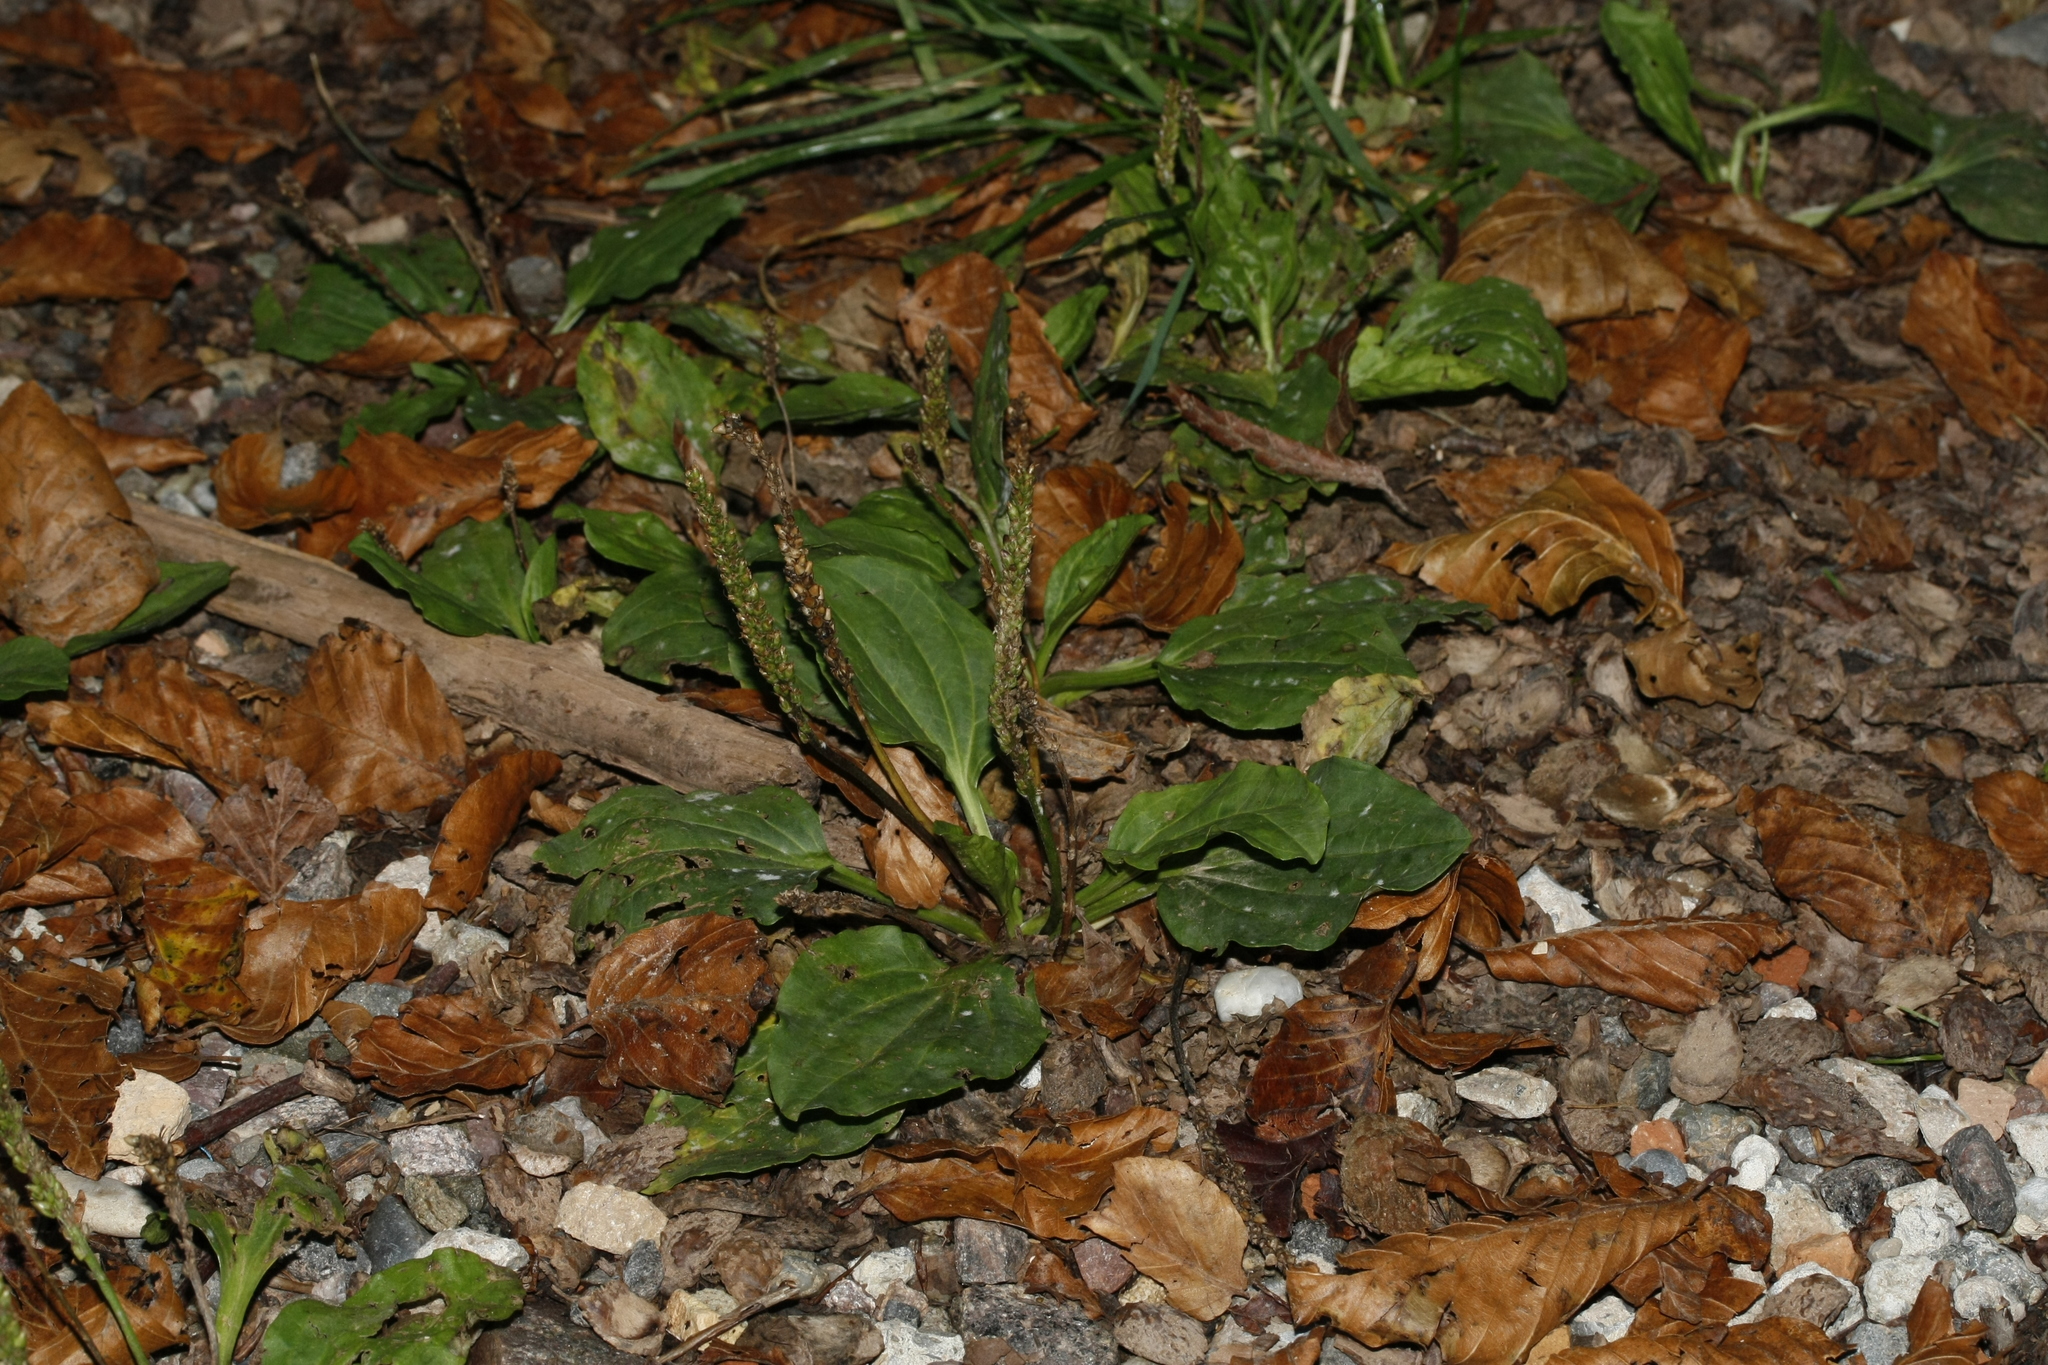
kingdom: Plantae
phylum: Tracheophyta
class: Magnoliopsida
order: Lamiales
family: Plantaginaceae
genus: Plantago
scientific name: Plantago major
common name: Common plantain
